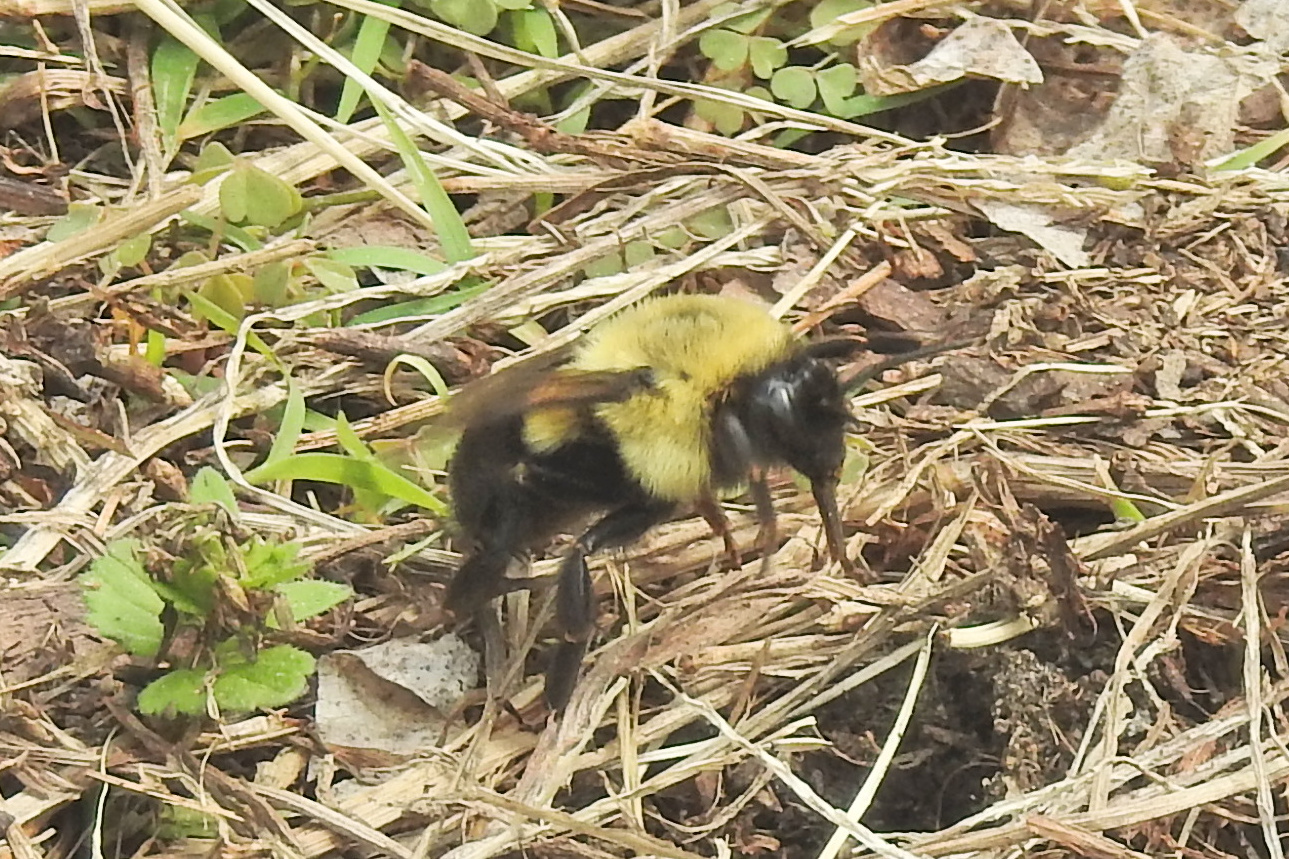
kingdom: Animalia
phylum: Arthropoda
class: Insecta
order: Hymenoptera
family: Apidae
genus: Bombus
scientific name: Bombus impatiens
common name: Common eastern bumble bee
